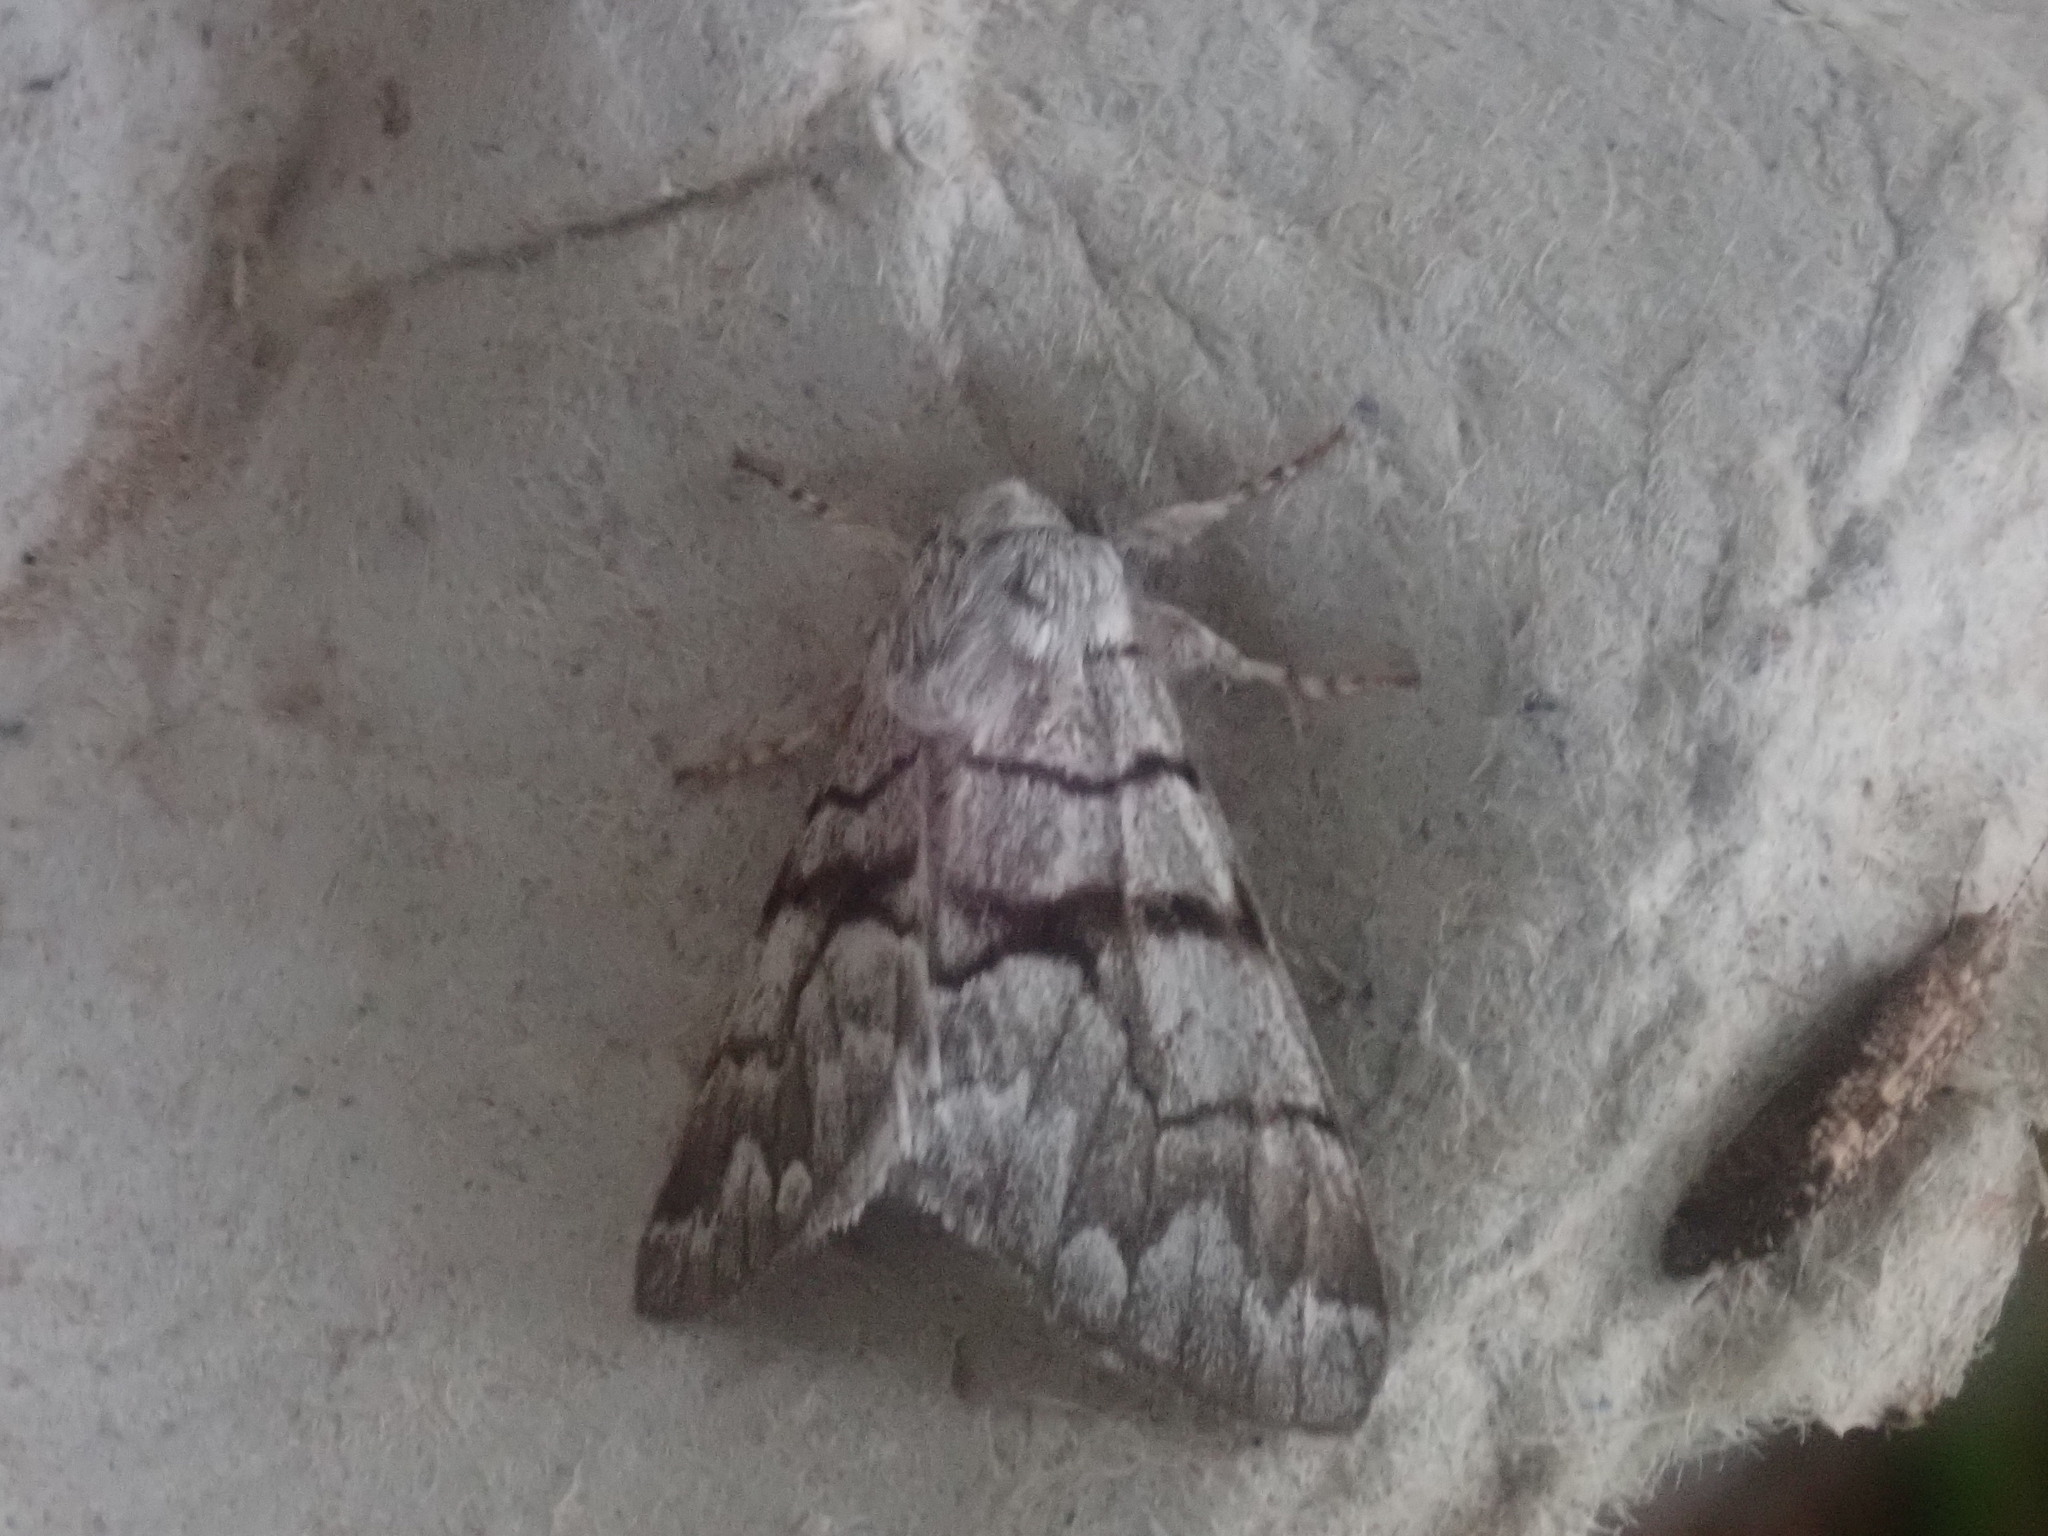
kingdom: Animalia
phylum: Arthropoda
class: Insecta
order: Lepidoptera
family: Noctuidae
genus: Panthea
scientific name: Panthea furcilla
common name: Eastern panthea moth
